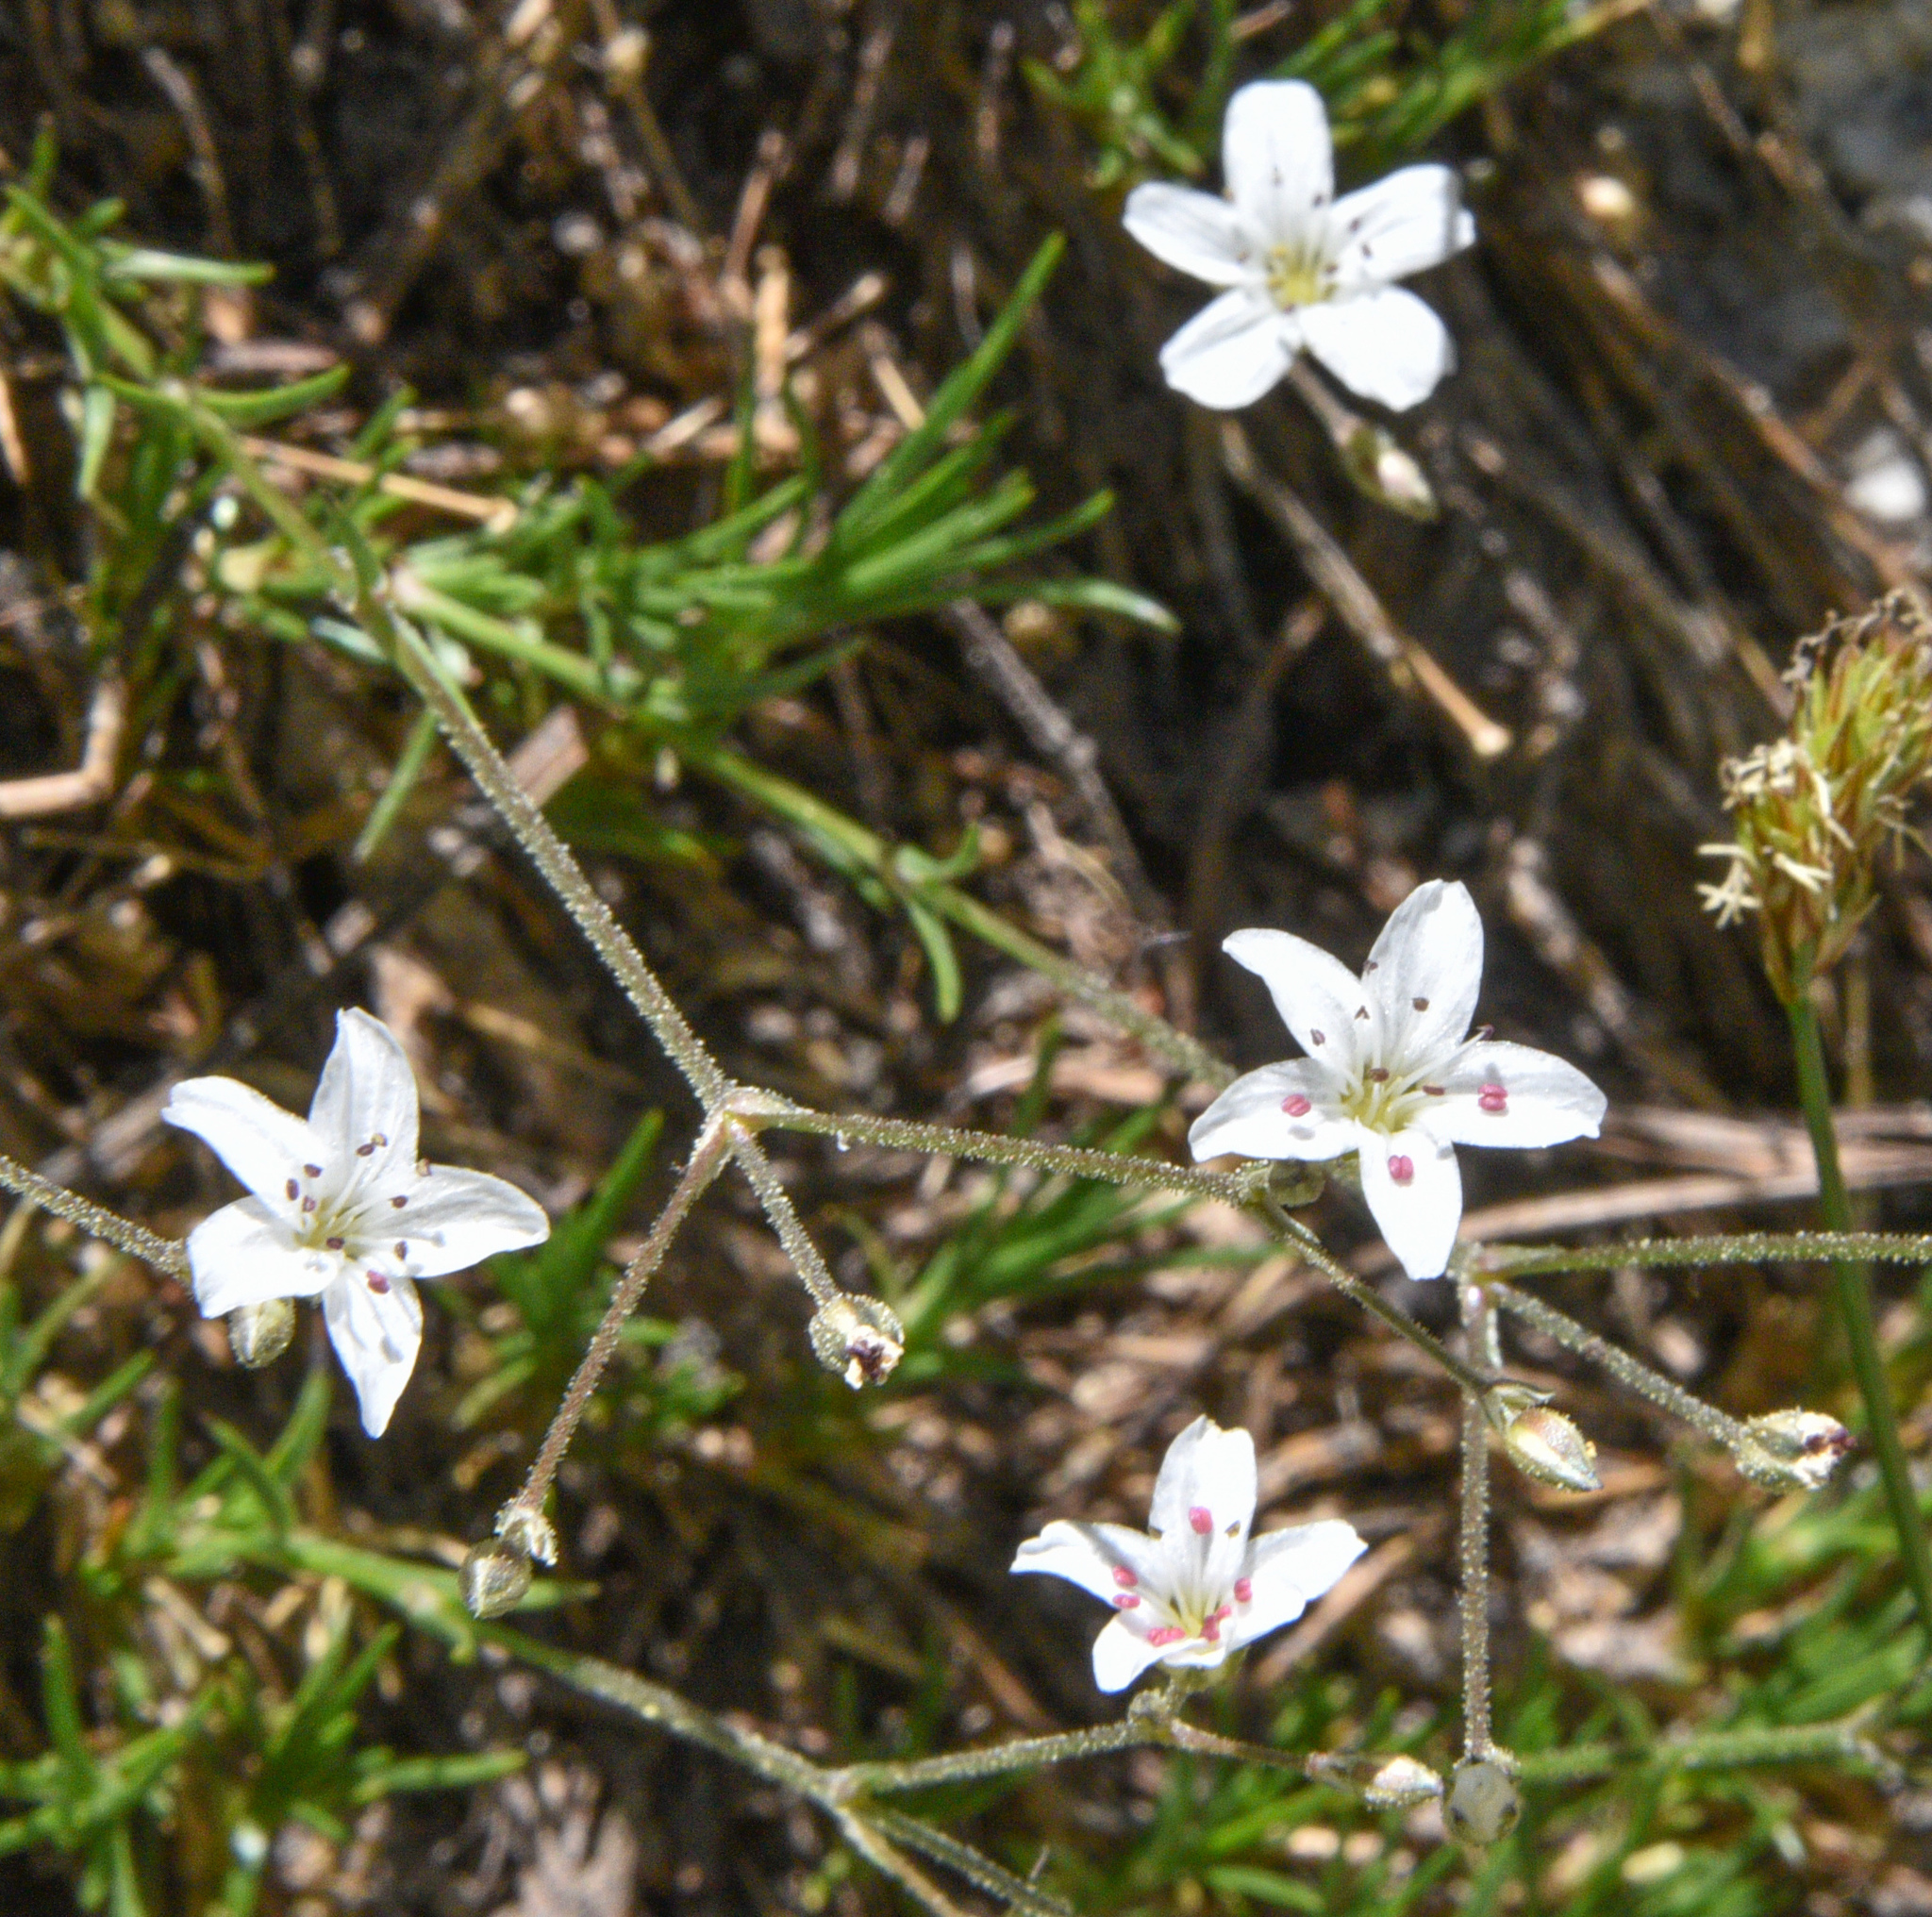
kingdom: Plantae
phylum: Tracheophyta
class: Magnoliopsida
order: Caryophyllales
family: Caryophyllaceae
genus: Eremogone
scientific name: Eremogone kingii
